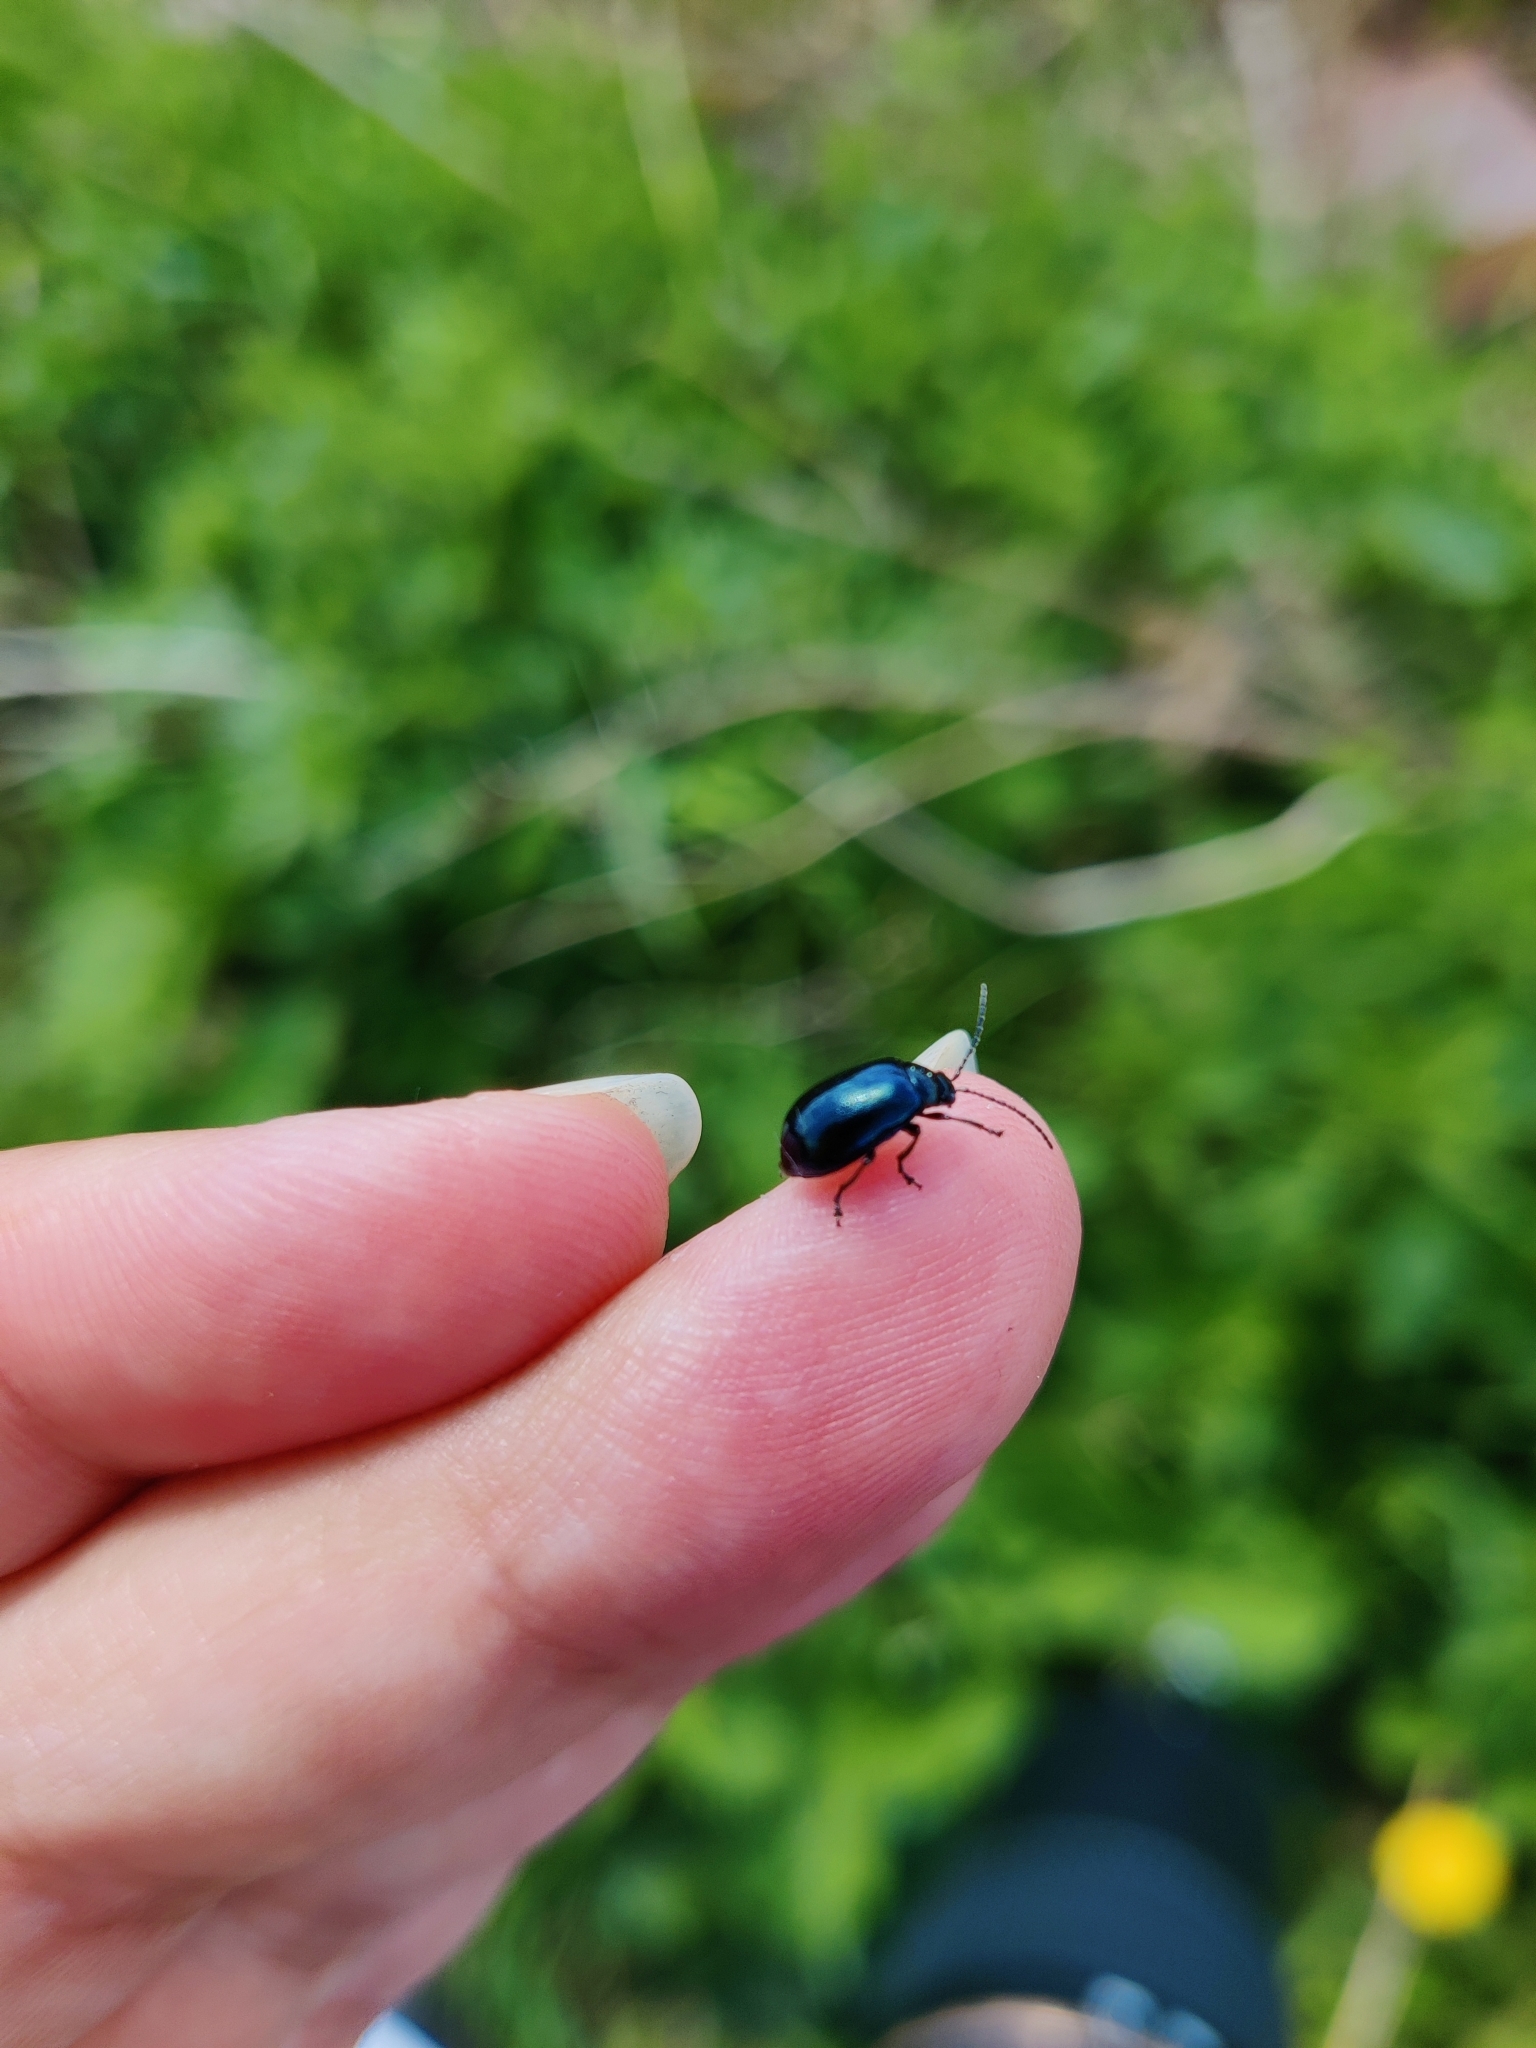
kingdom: Animalia
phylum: Arthropoda
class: Insecta
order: Coleoptera
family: Chrysomelidae
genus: Agelastica
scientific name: Agelastica alni
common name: Alder leaf beetle
